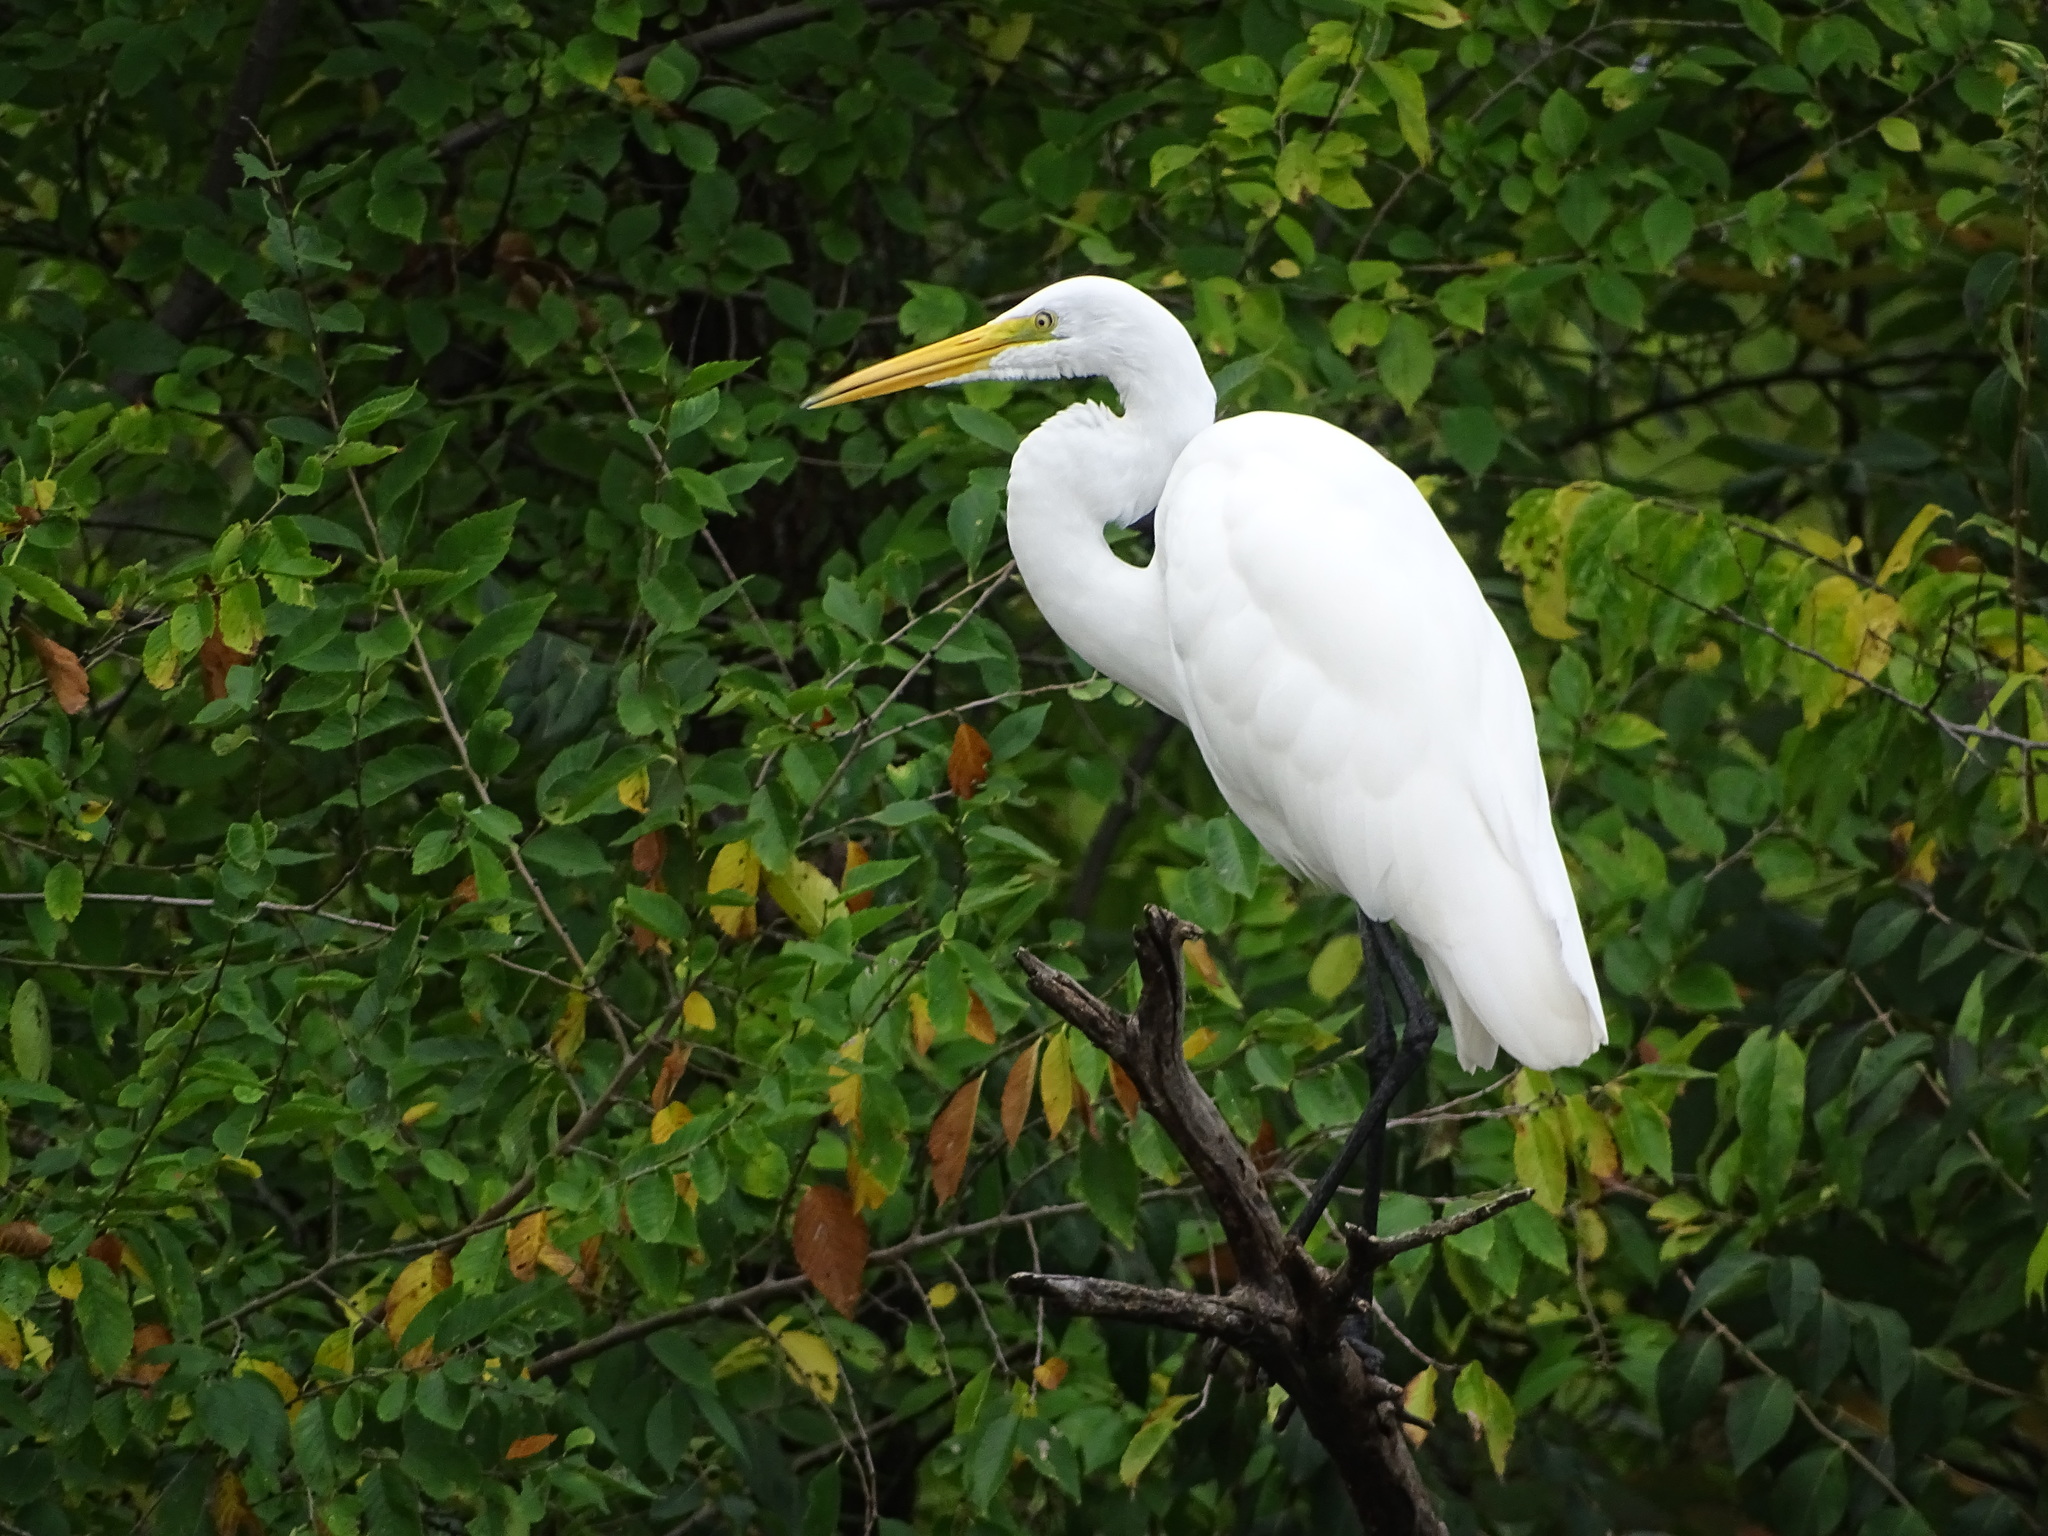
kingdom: Animalia
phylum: Chordata
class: Aves
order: Pelecaniformes
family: Ardeidae
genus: Ardea
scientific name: Ardea alba
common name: Great egret
